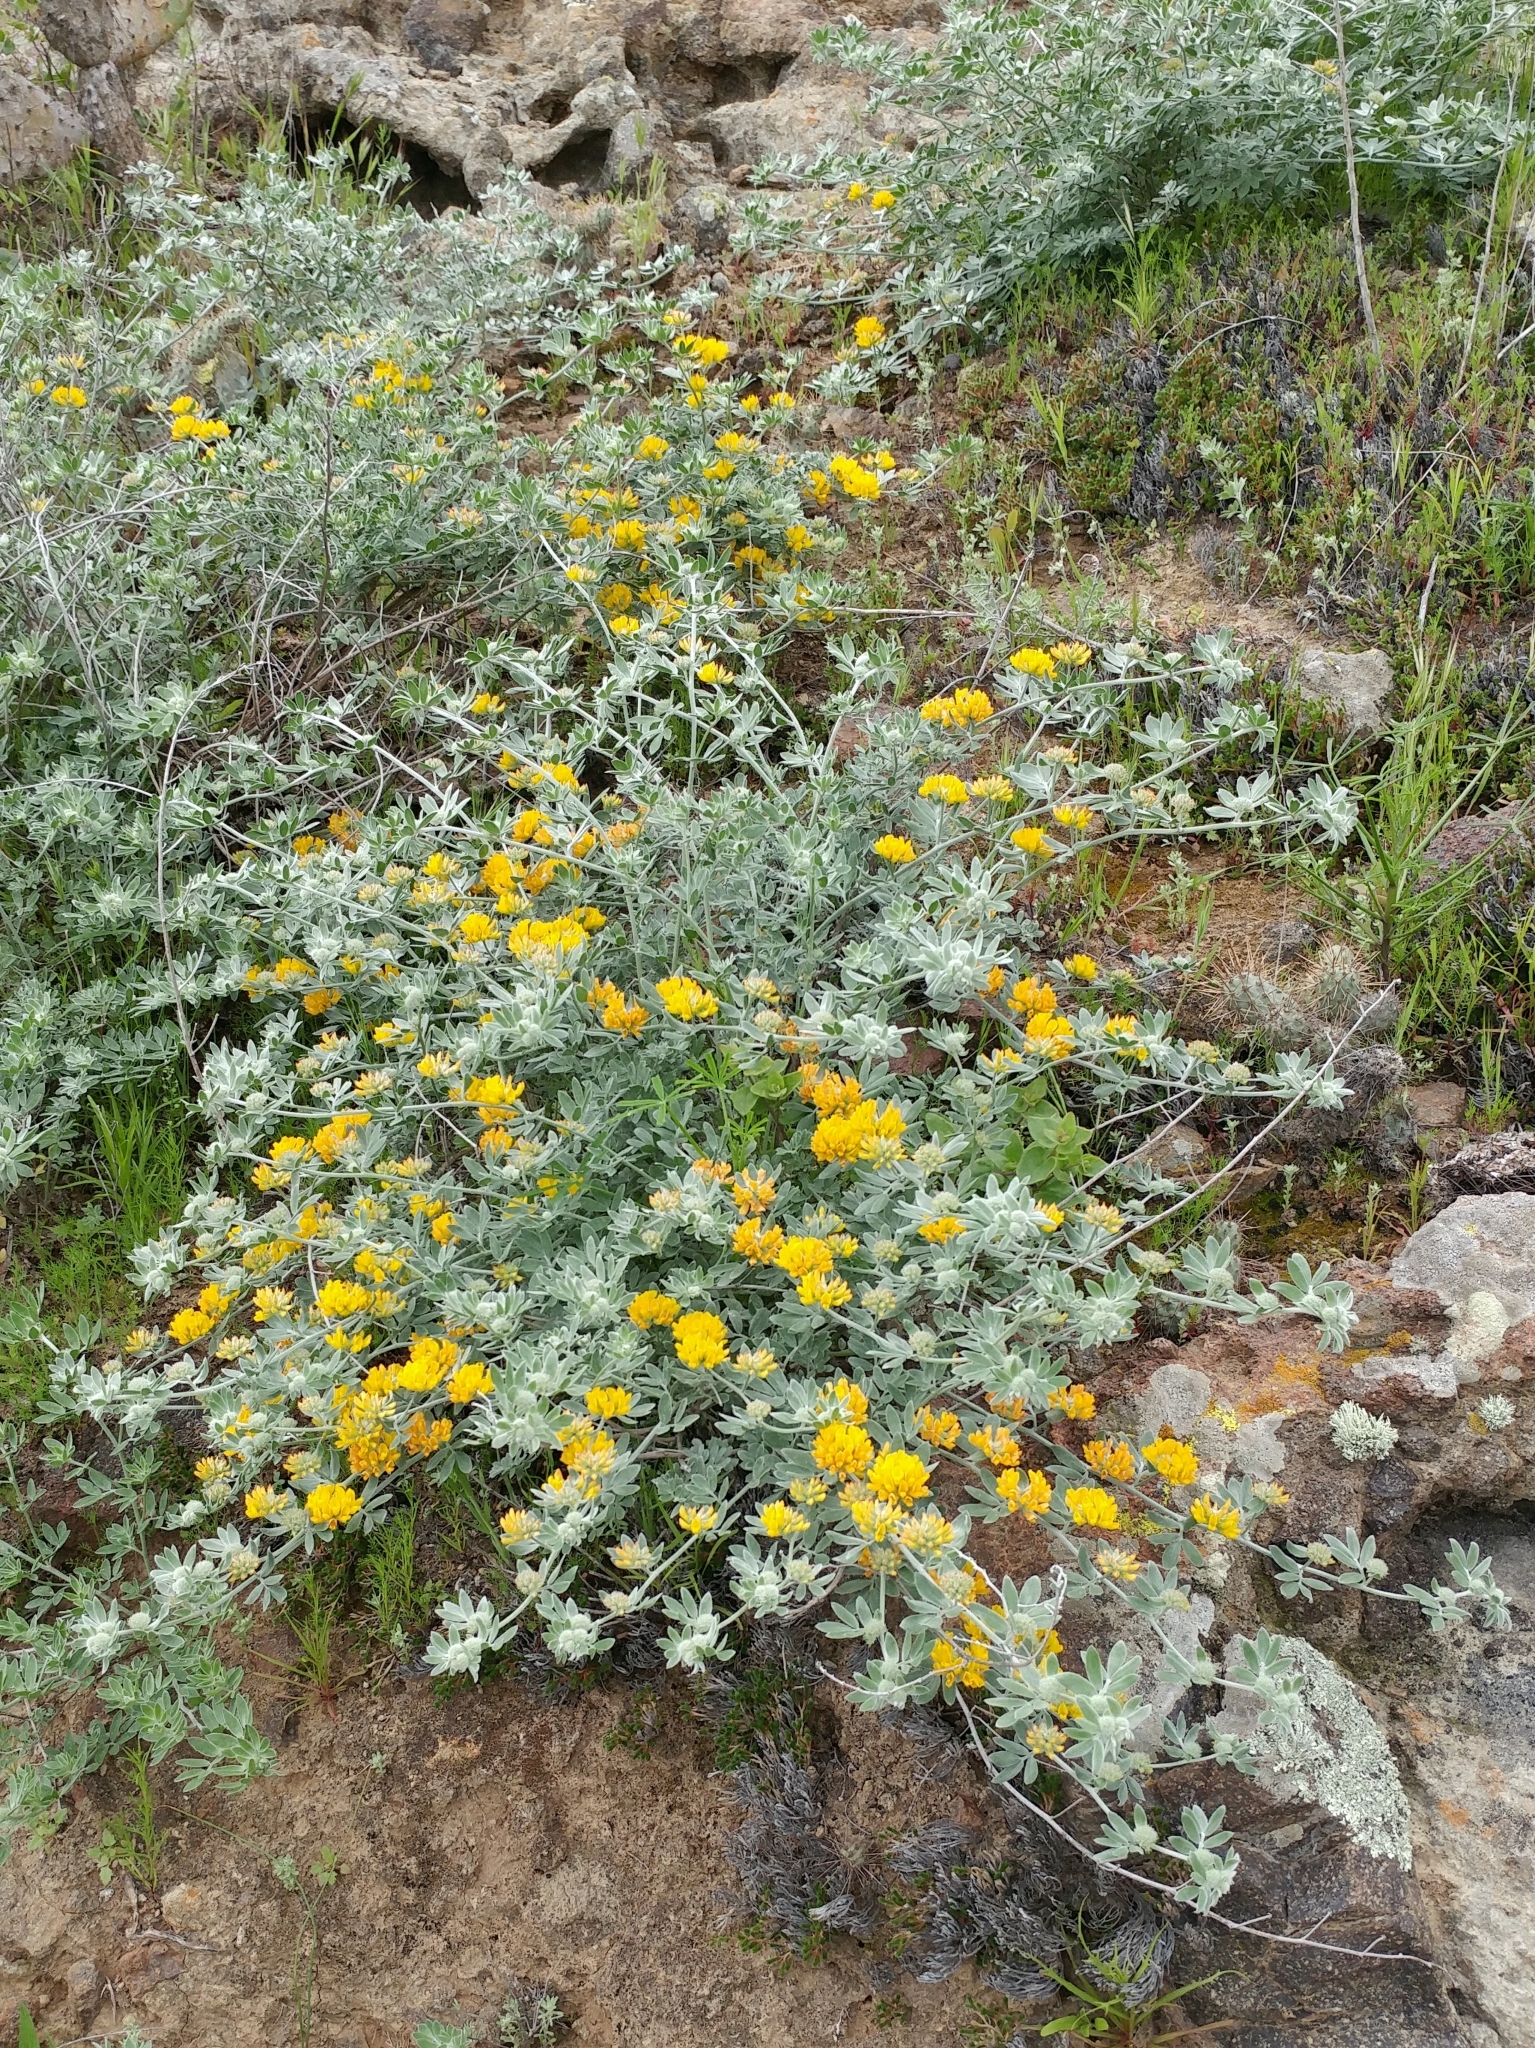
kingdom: Plantae
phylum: Tracheophyta
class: Magnoliopsida
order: Fabales
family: Fabaceae
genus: Acmispon
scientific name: Acmispon argophyllus
